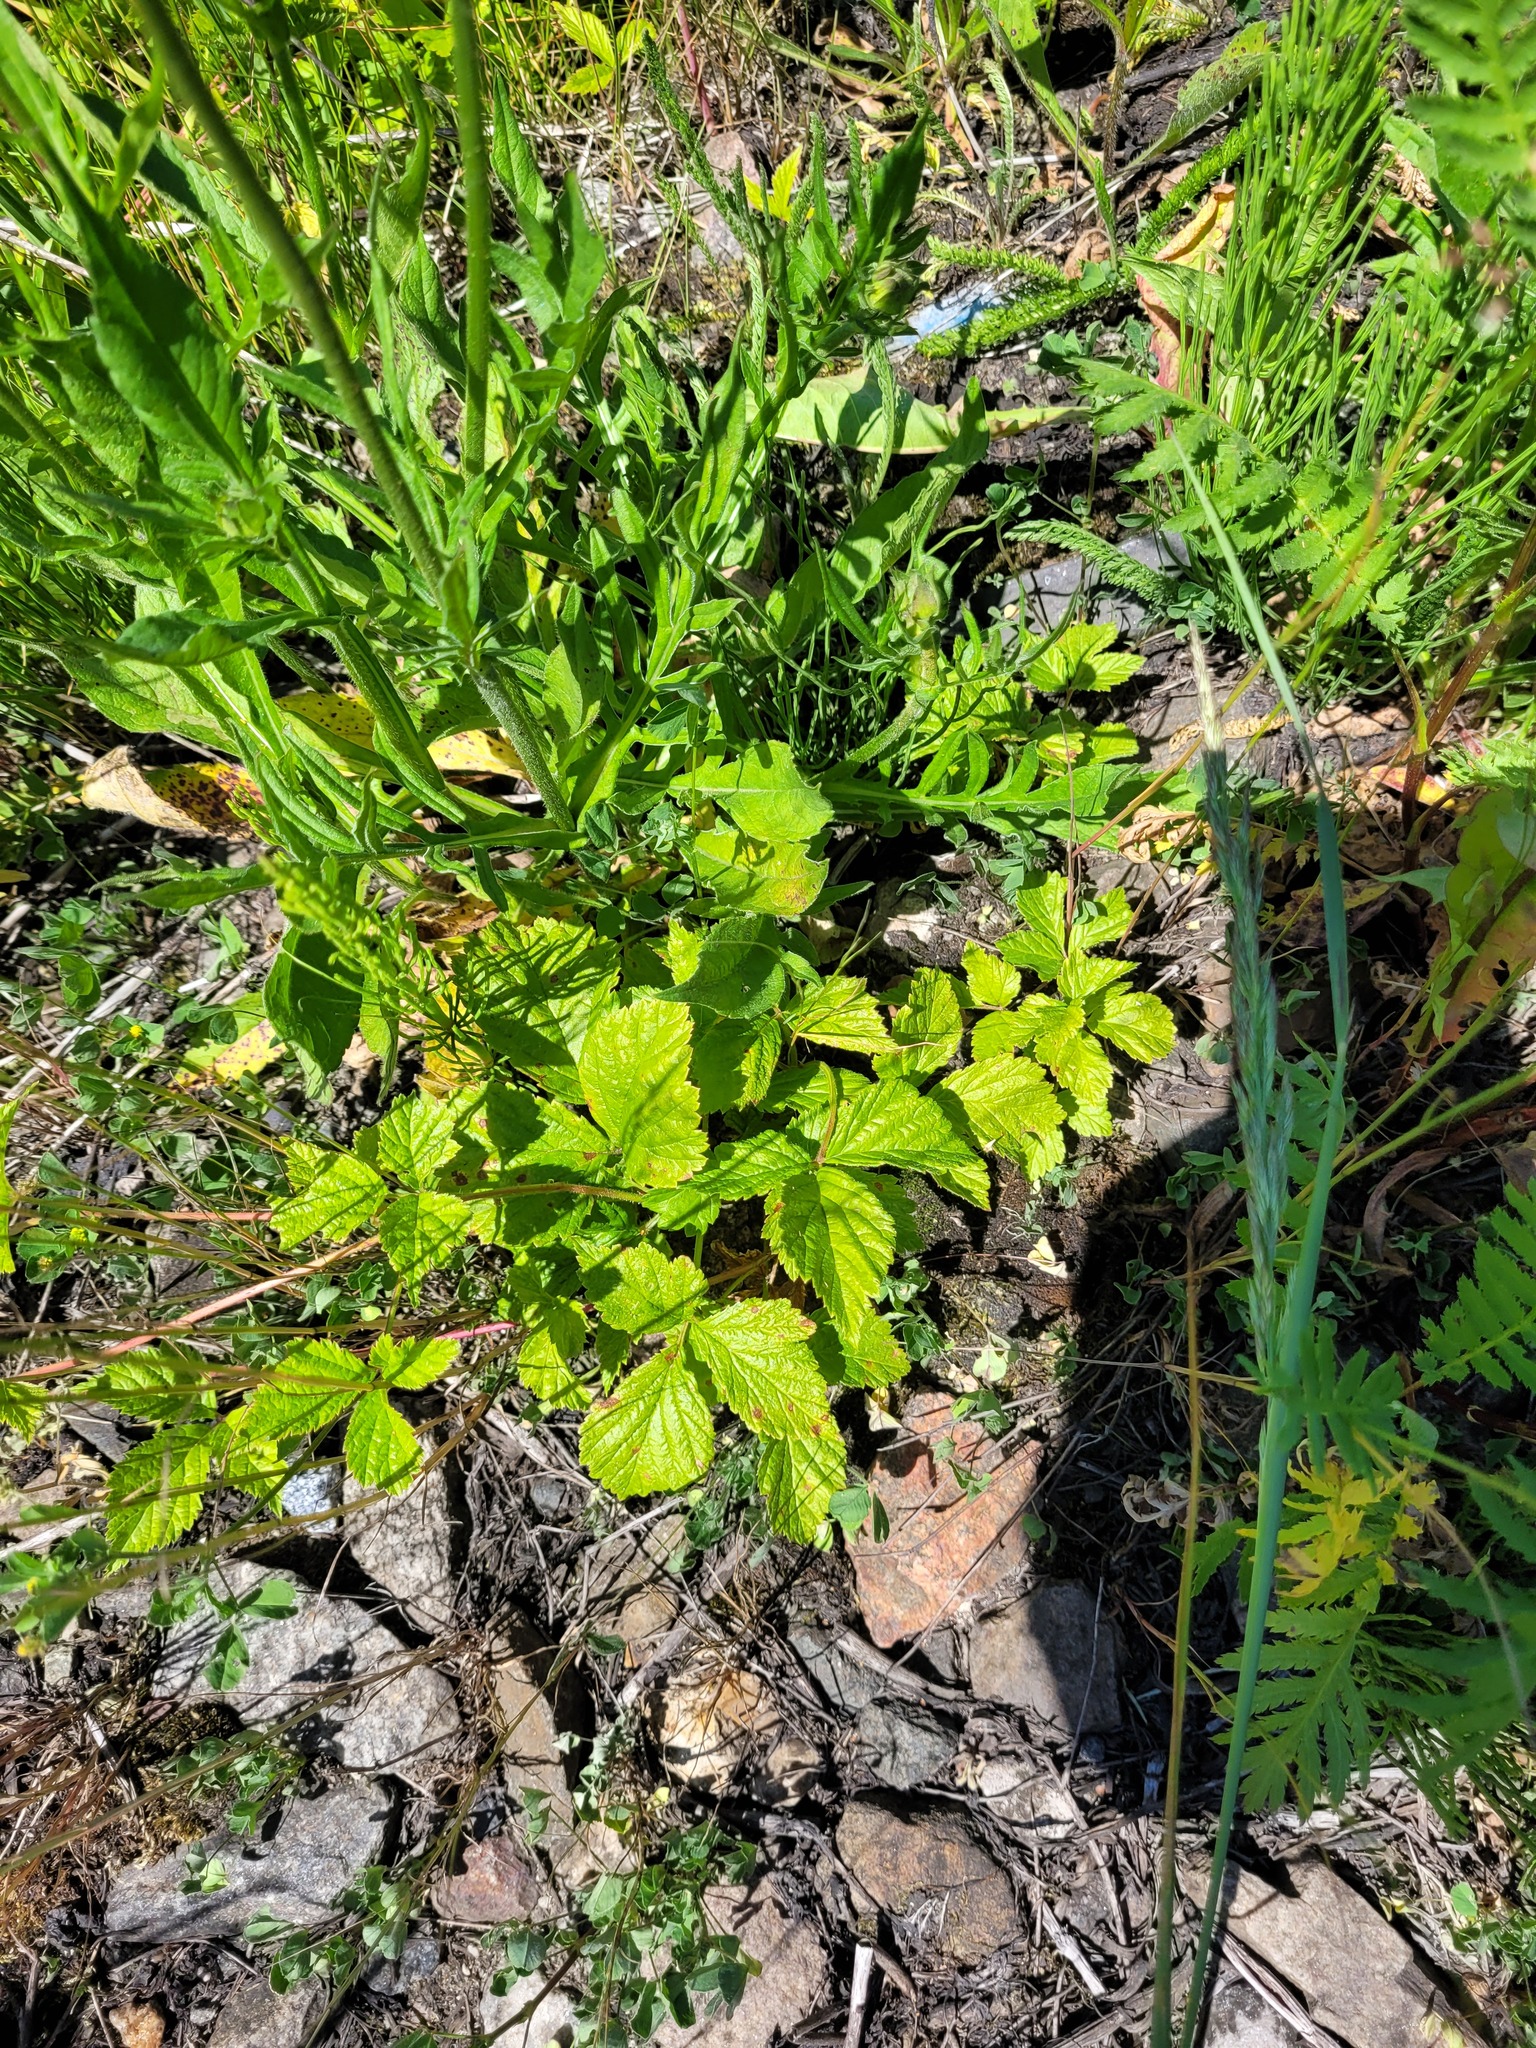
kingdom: Plantae
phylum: Tracheophyta
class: Magnoliopsida
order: Rosales
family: Rosaceae
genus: Rubus
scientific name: Rubus saxatilis
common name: Stone bramble
